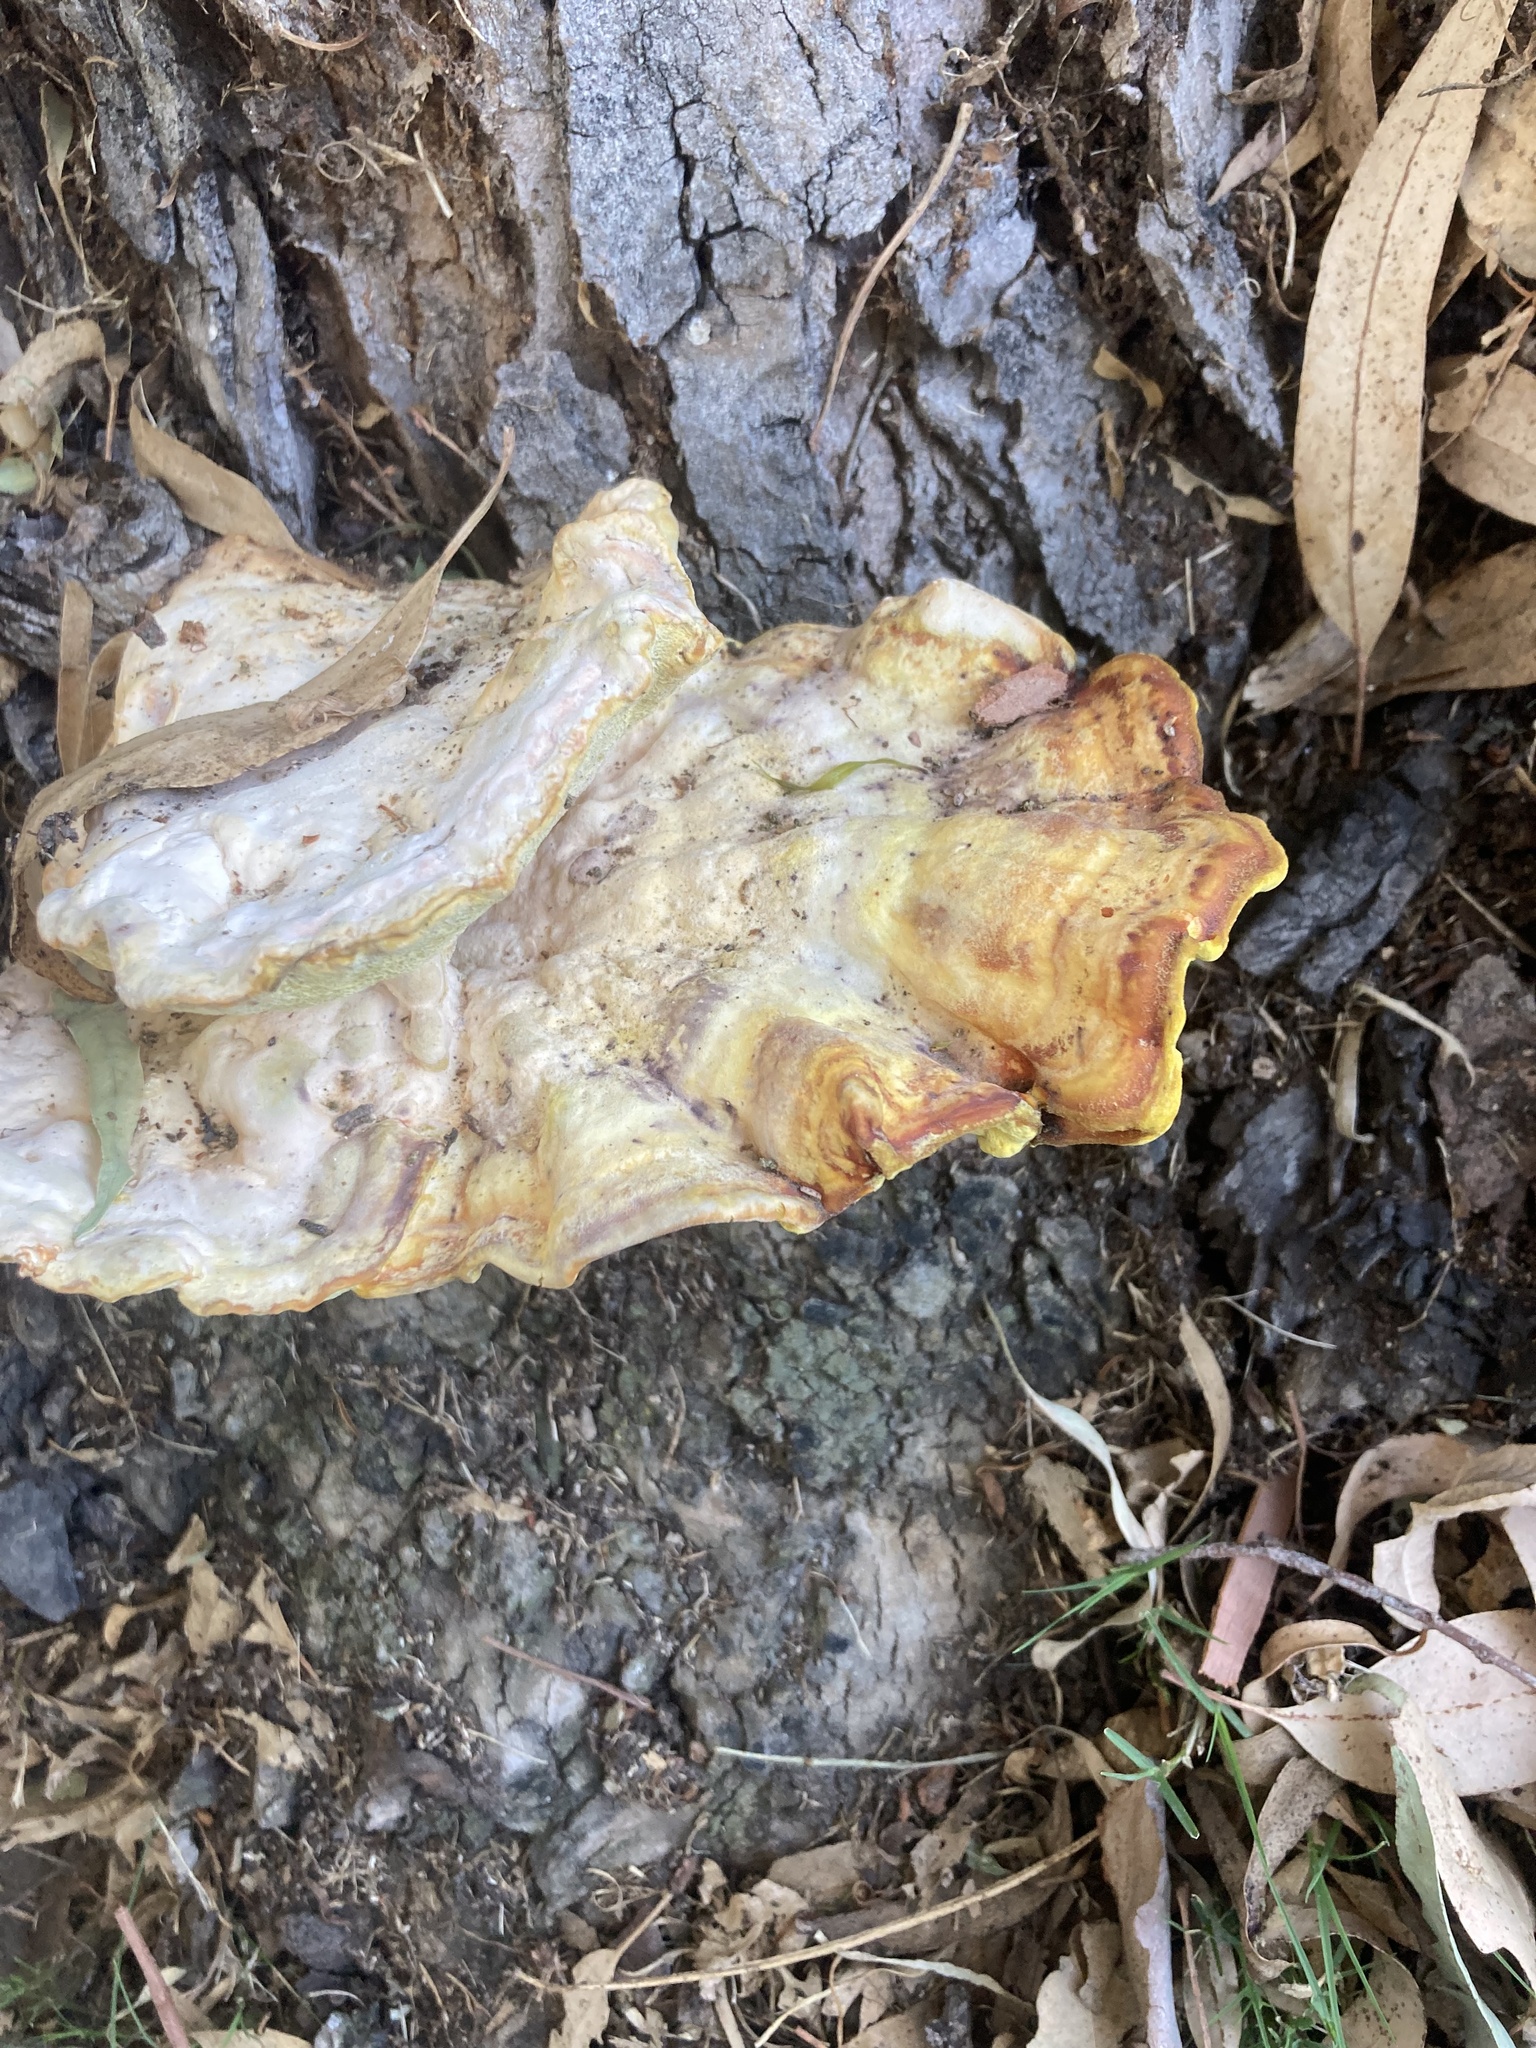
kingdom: Fungi
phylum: Basidiomycota
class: Agaricomycetes
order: Polyporales
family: Laetiporaceae
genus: Laetiporus
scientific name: Laetiporus gilbertsonii
